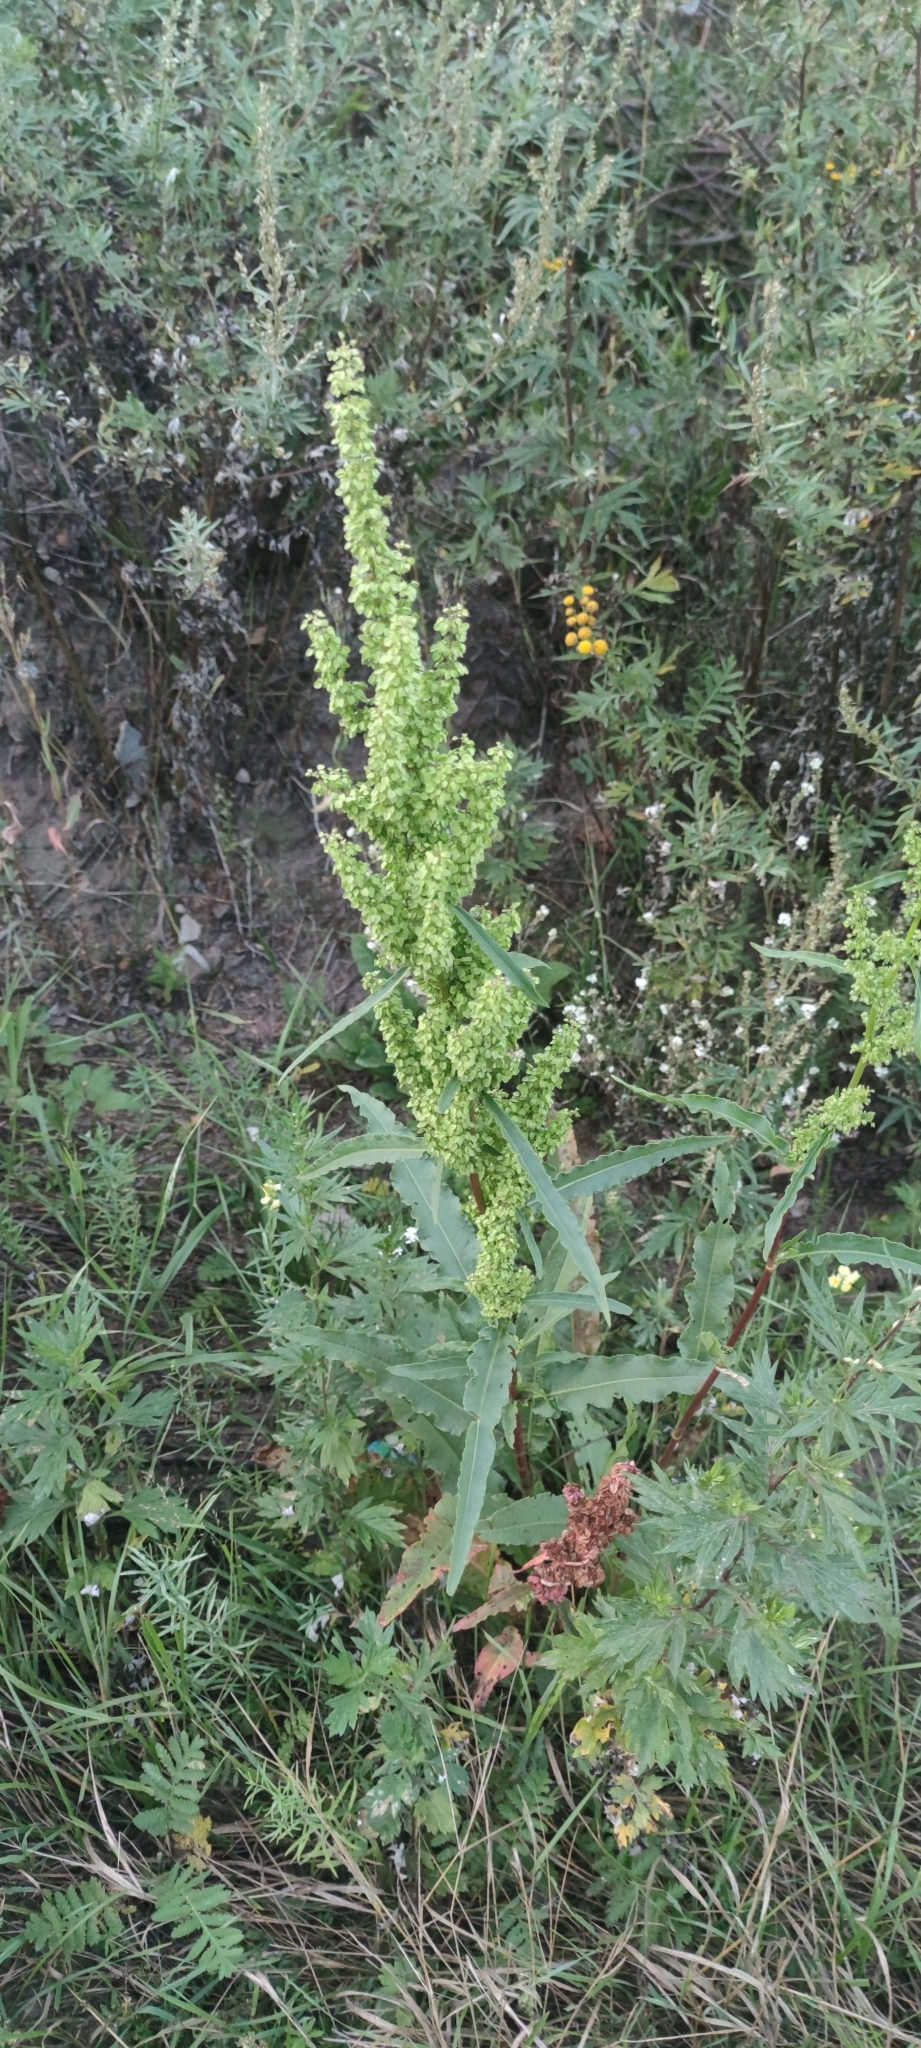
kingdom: Plantae
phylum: Tracheophyta
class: Magnoliopsida
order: Caryophyllales
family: Polygonaceae
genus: Rumex
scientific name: Rumex pseudonatronatus
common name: Field dock
